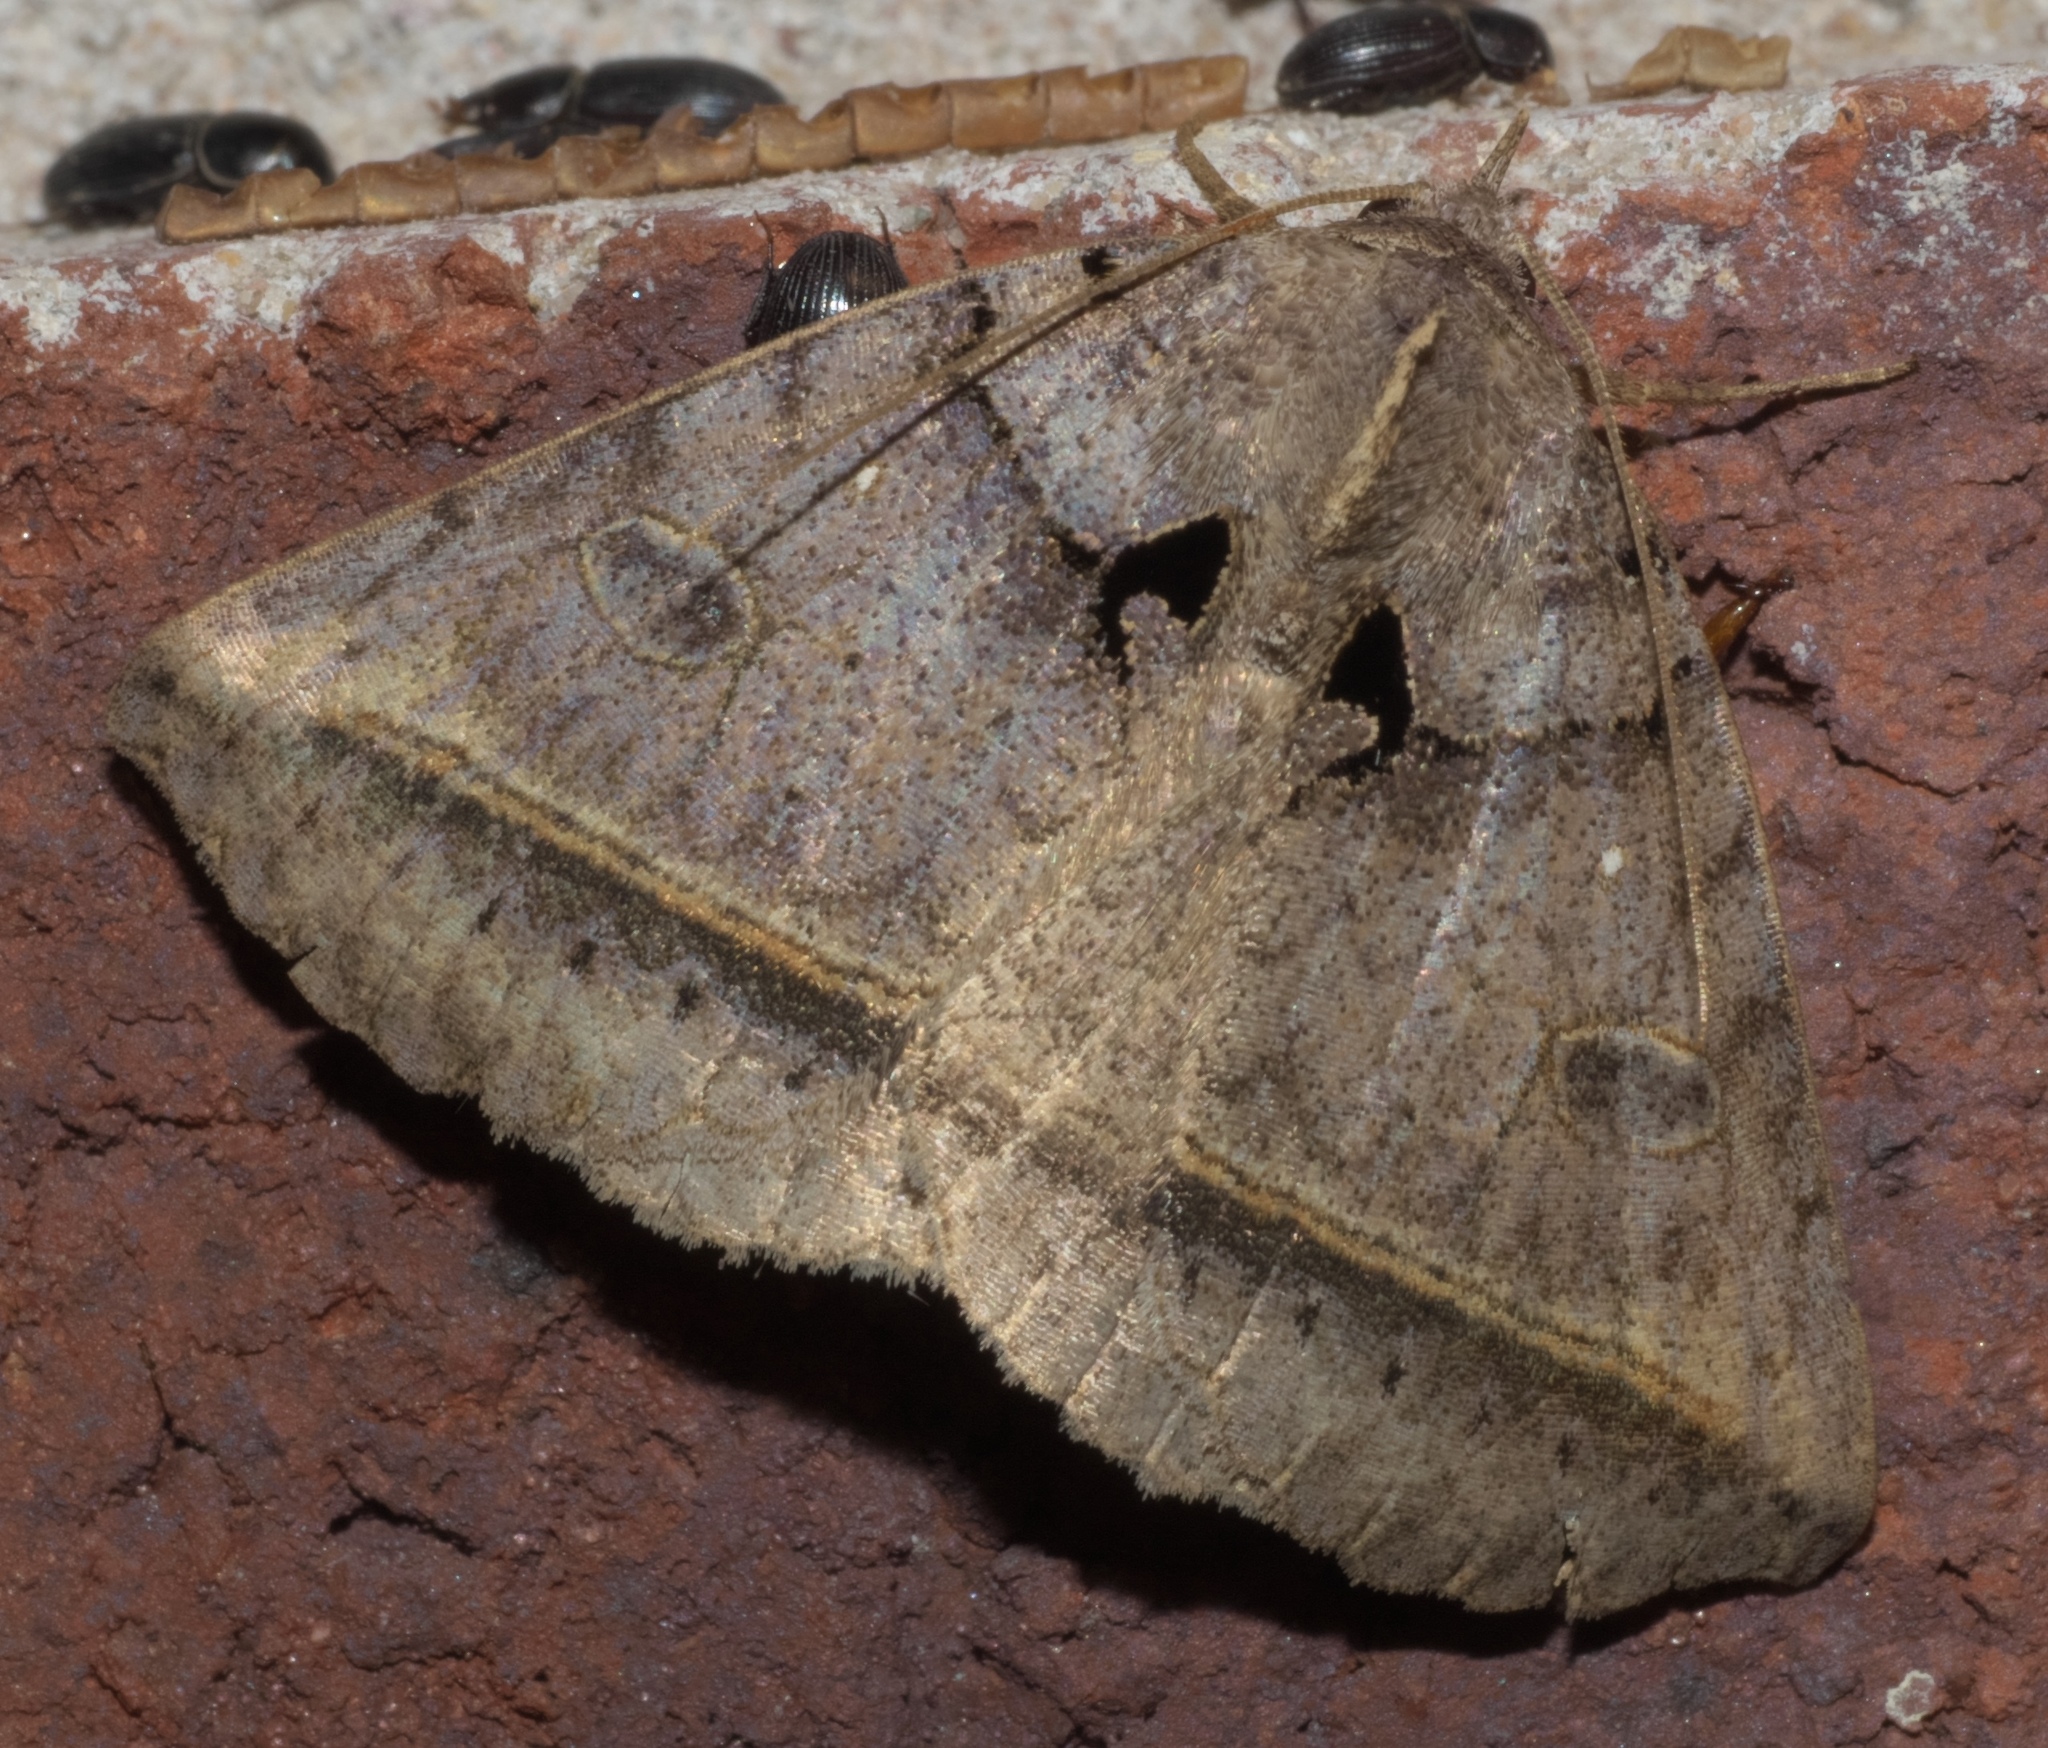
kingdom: Animalia
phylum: Arthropoda
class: Insecta
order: Lepidoptera
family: Erebidae
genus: Celiptera
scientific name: Celiptera frustulum
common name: Black bit moth
